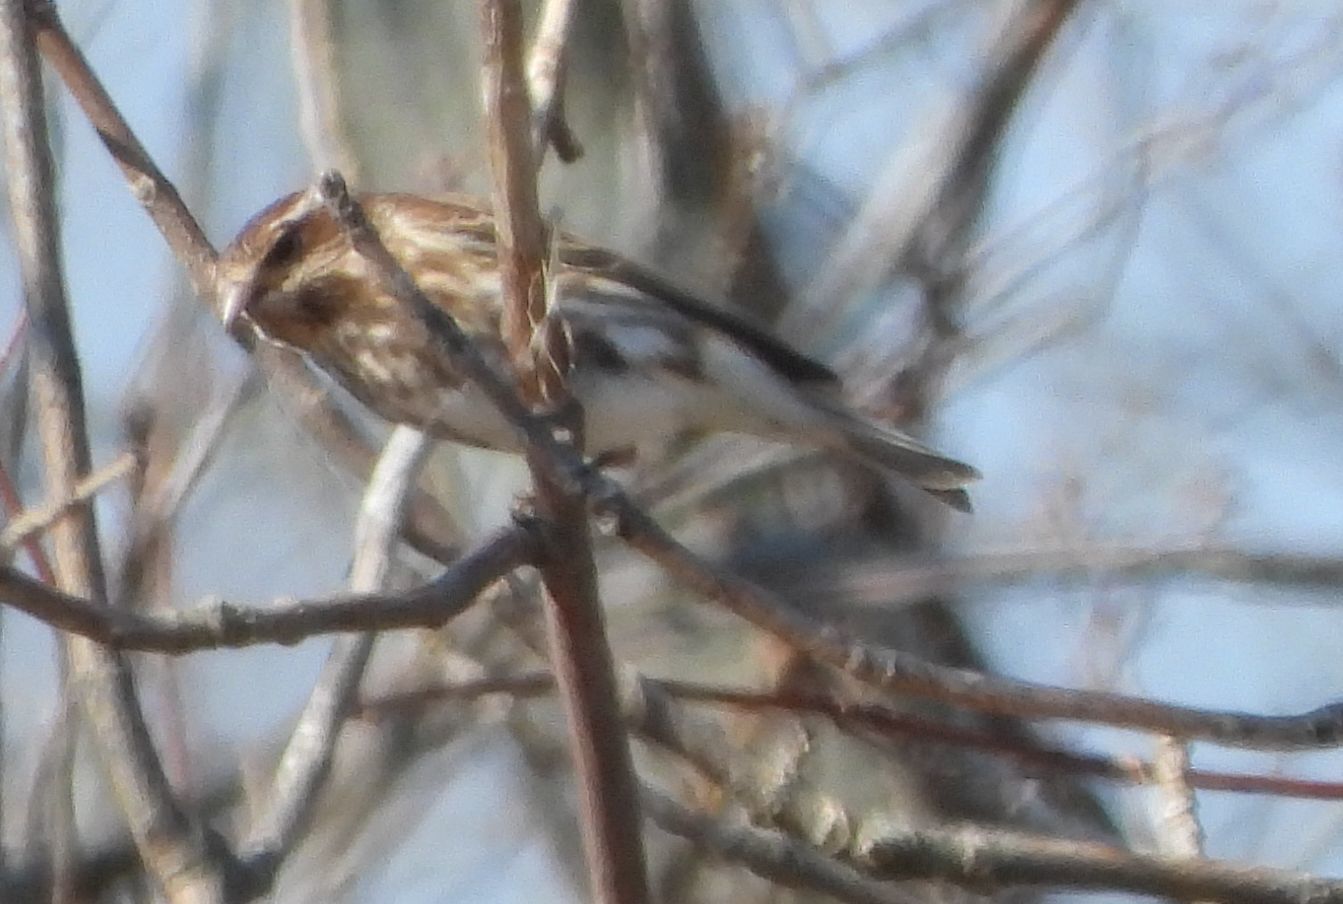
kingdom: Animalia
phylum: Chordata
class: Aves
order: Passeriformes
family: Fringillidae
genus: Haemorhous
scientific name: Haemorhous purpureus
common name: Purple finch
